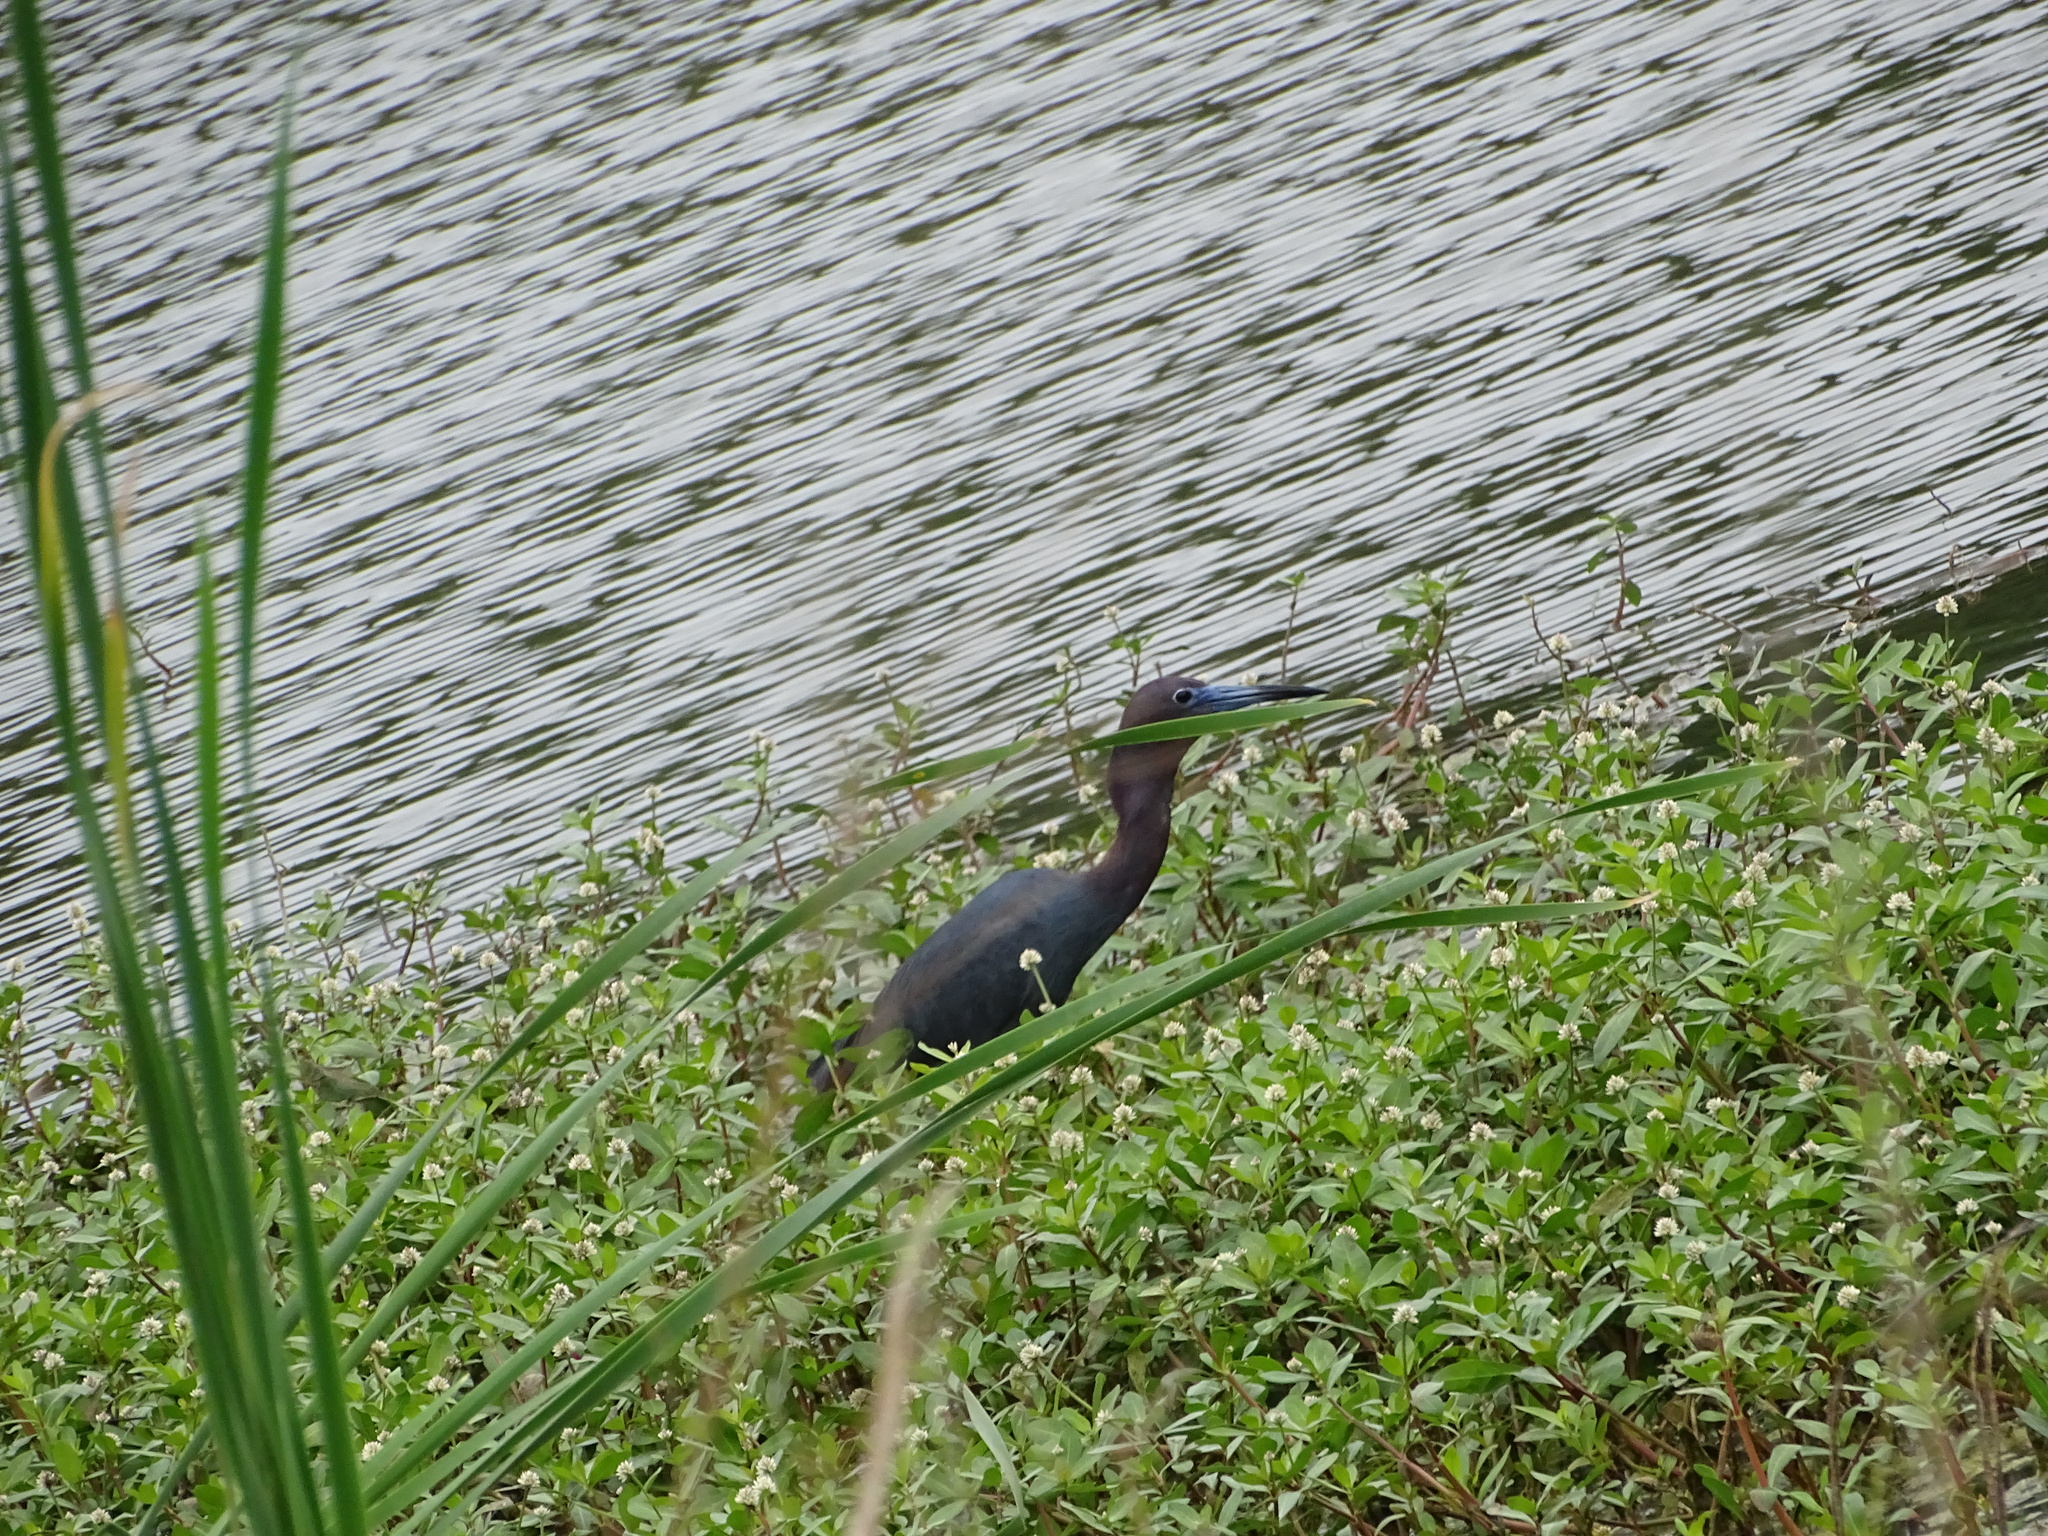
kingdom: Animalia
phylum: Chordata
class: Aves
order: Pelecaniformes
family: Ardeidae
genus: Egretta
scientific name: Egretta caerulea
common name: Little blue heron
